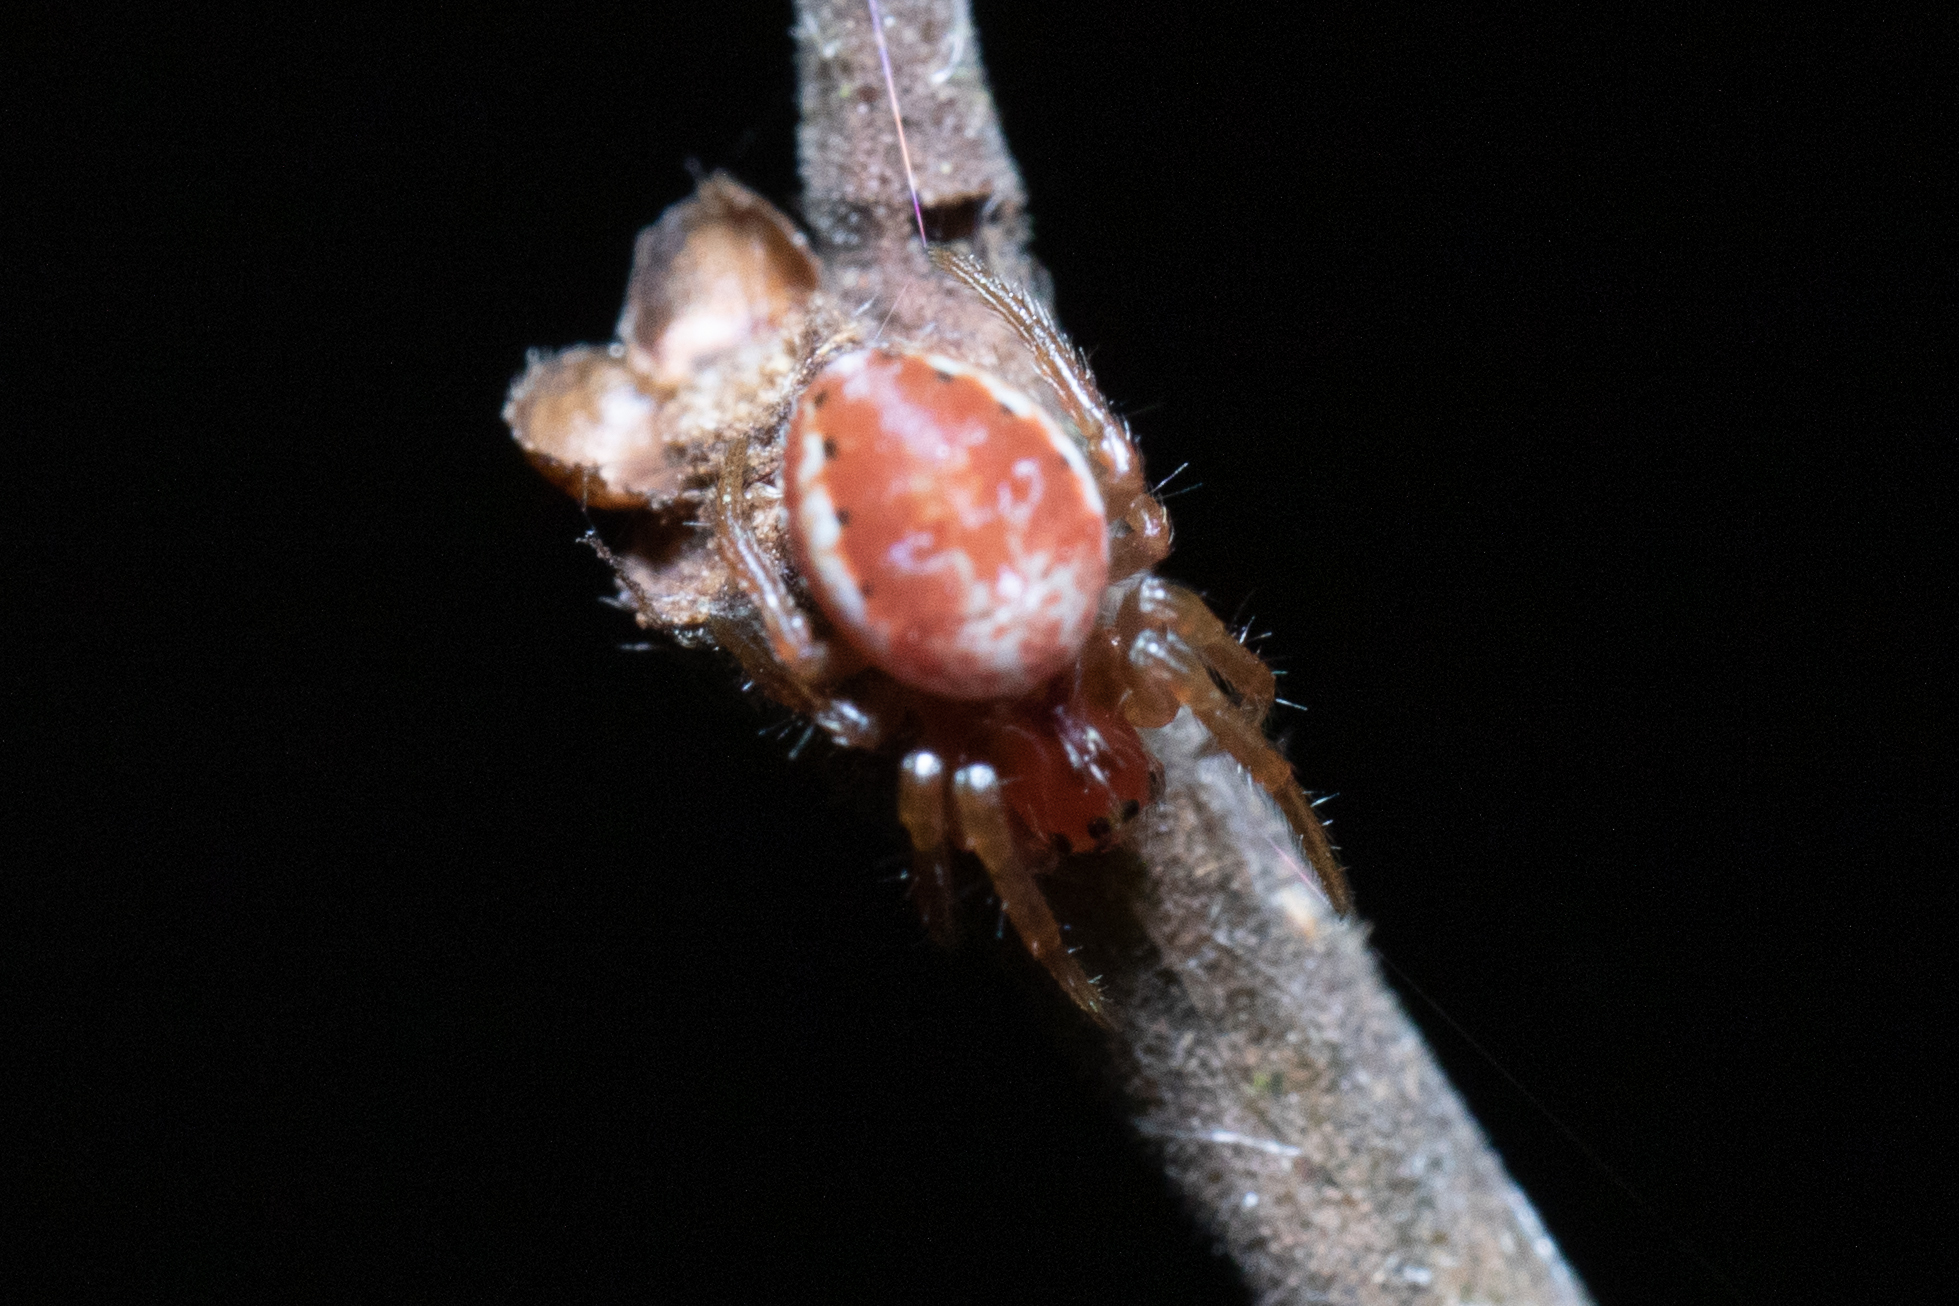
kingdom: Animalia
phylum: Arthropoda
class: Arachnida
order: Araneae
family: Araneidae
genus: Araniella
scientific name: Araniella
